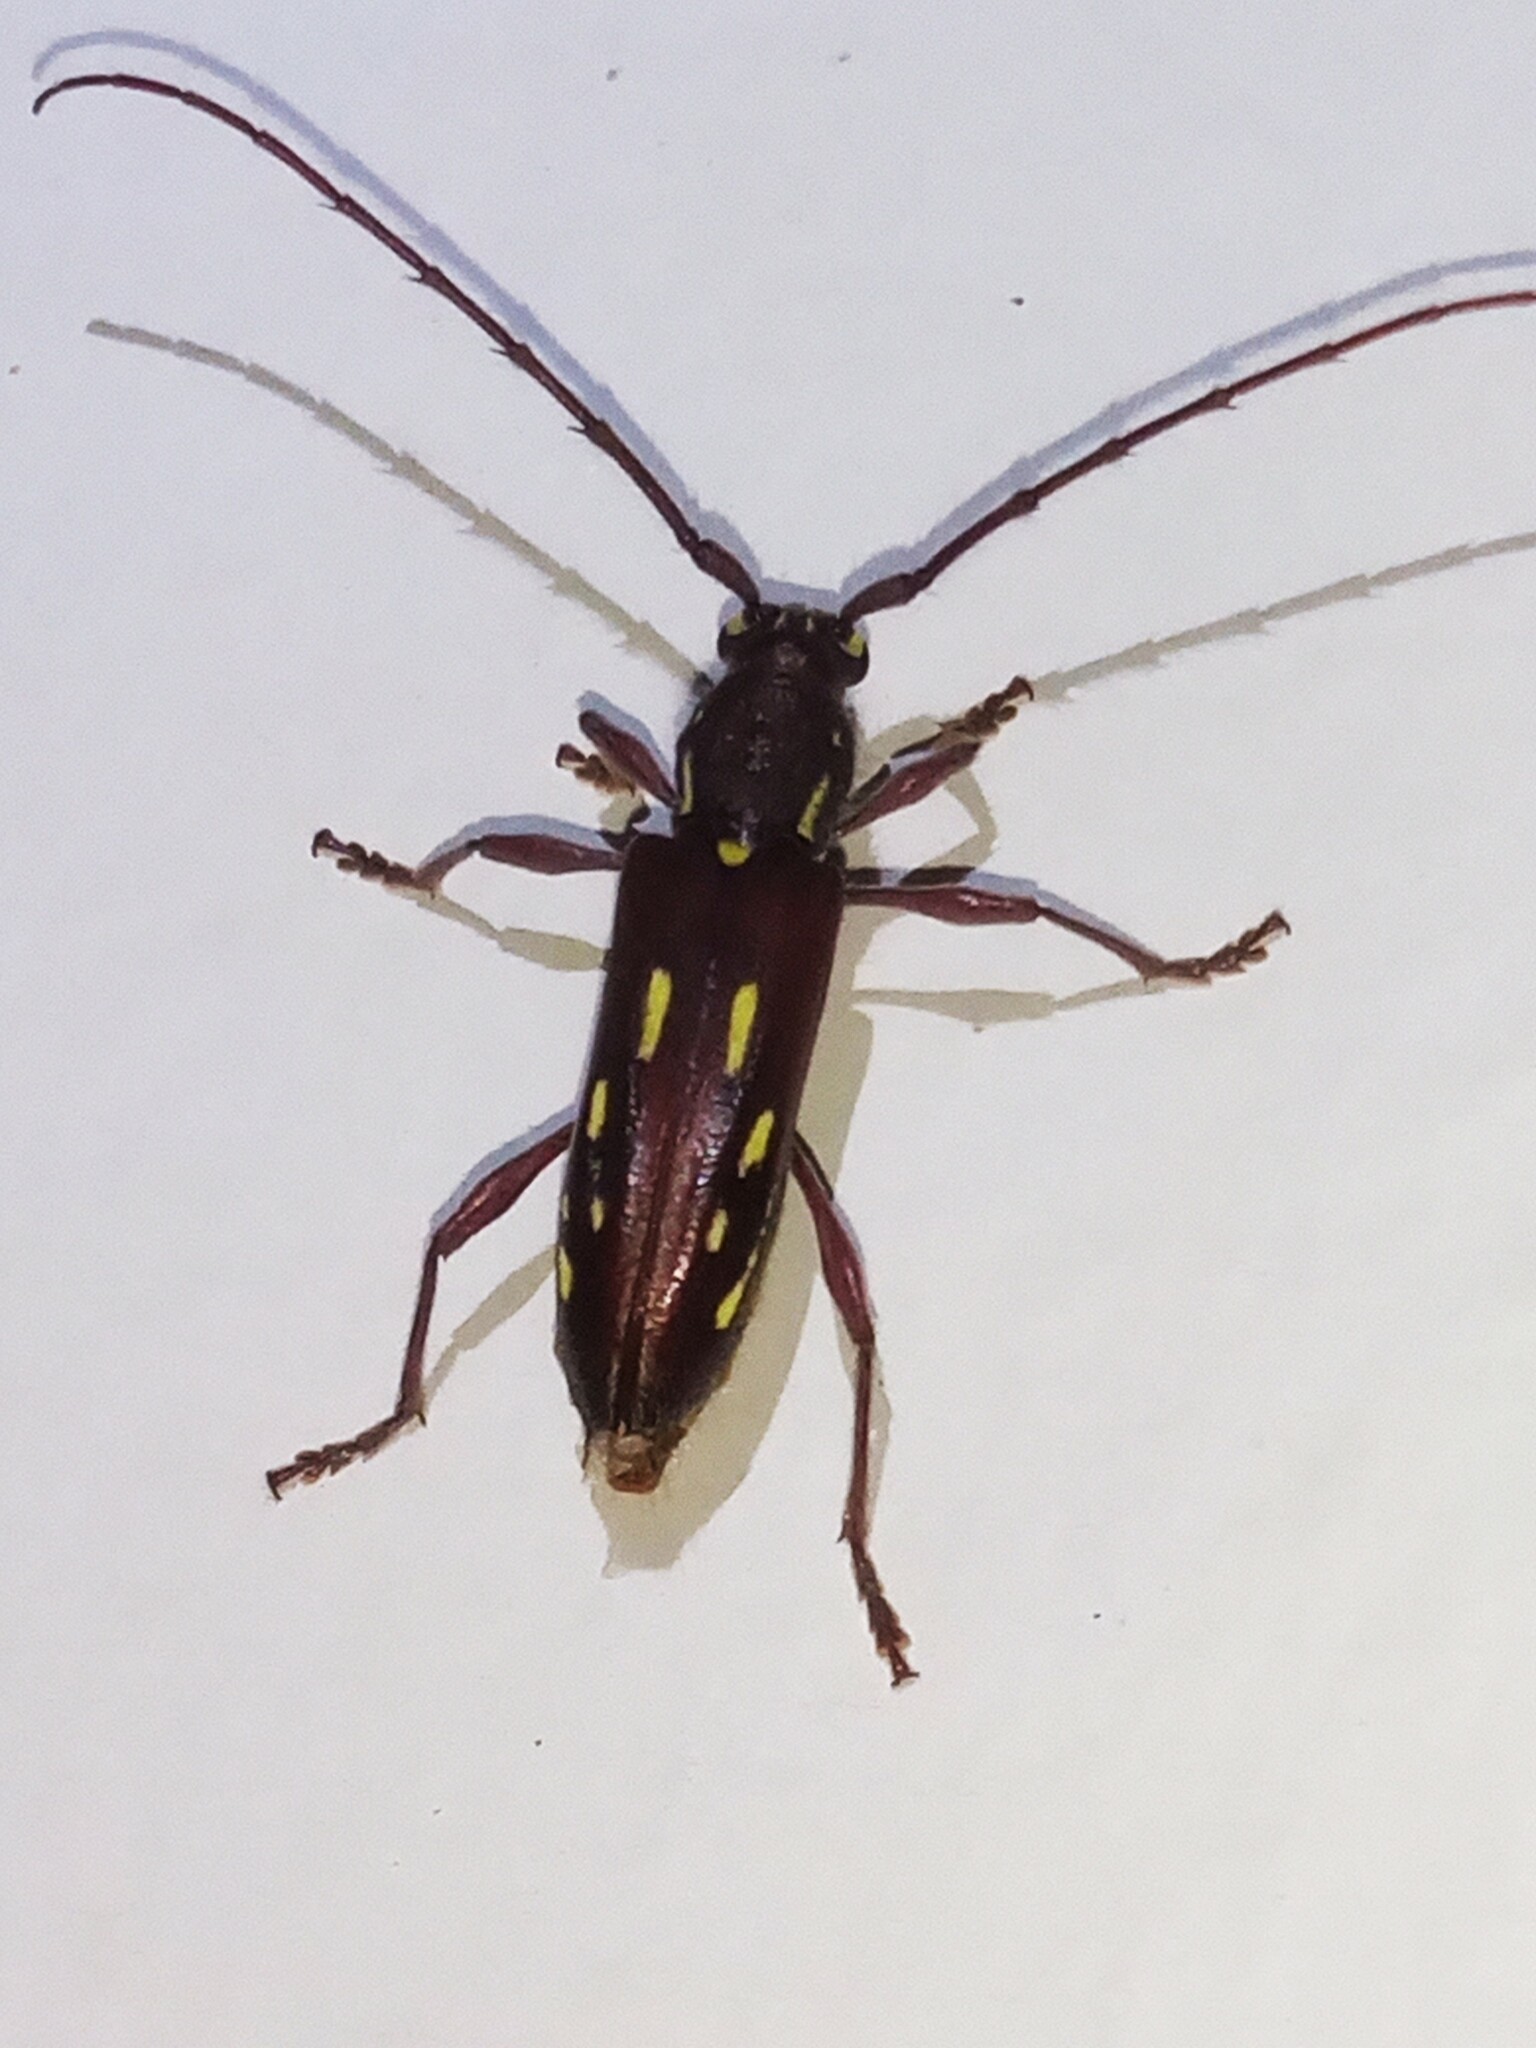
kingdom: Animalia
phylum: Arthropoda
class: Insecta
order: Coleoptera
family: Cerambycidae
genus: Ambonus
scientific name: Ambonus distinctus
